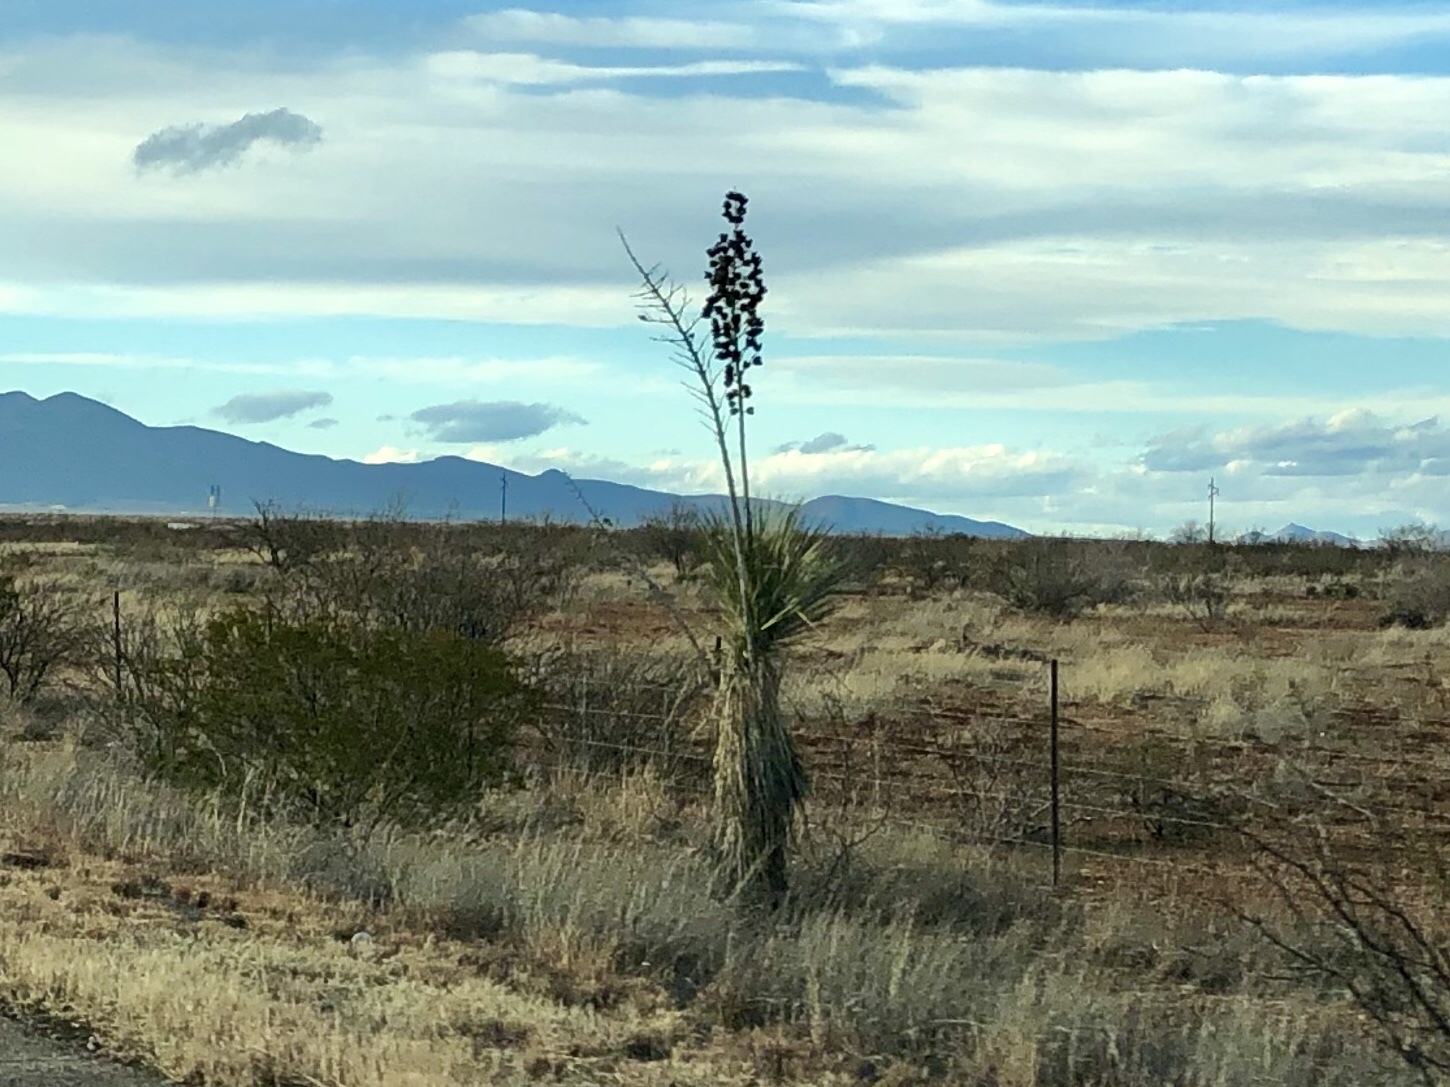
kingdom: Plantae
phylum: Tracheophyta
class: Liliopsida
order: Asparagales
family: Asparagaceae
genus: Yucca
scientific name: Yucca elata
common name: Palmella
